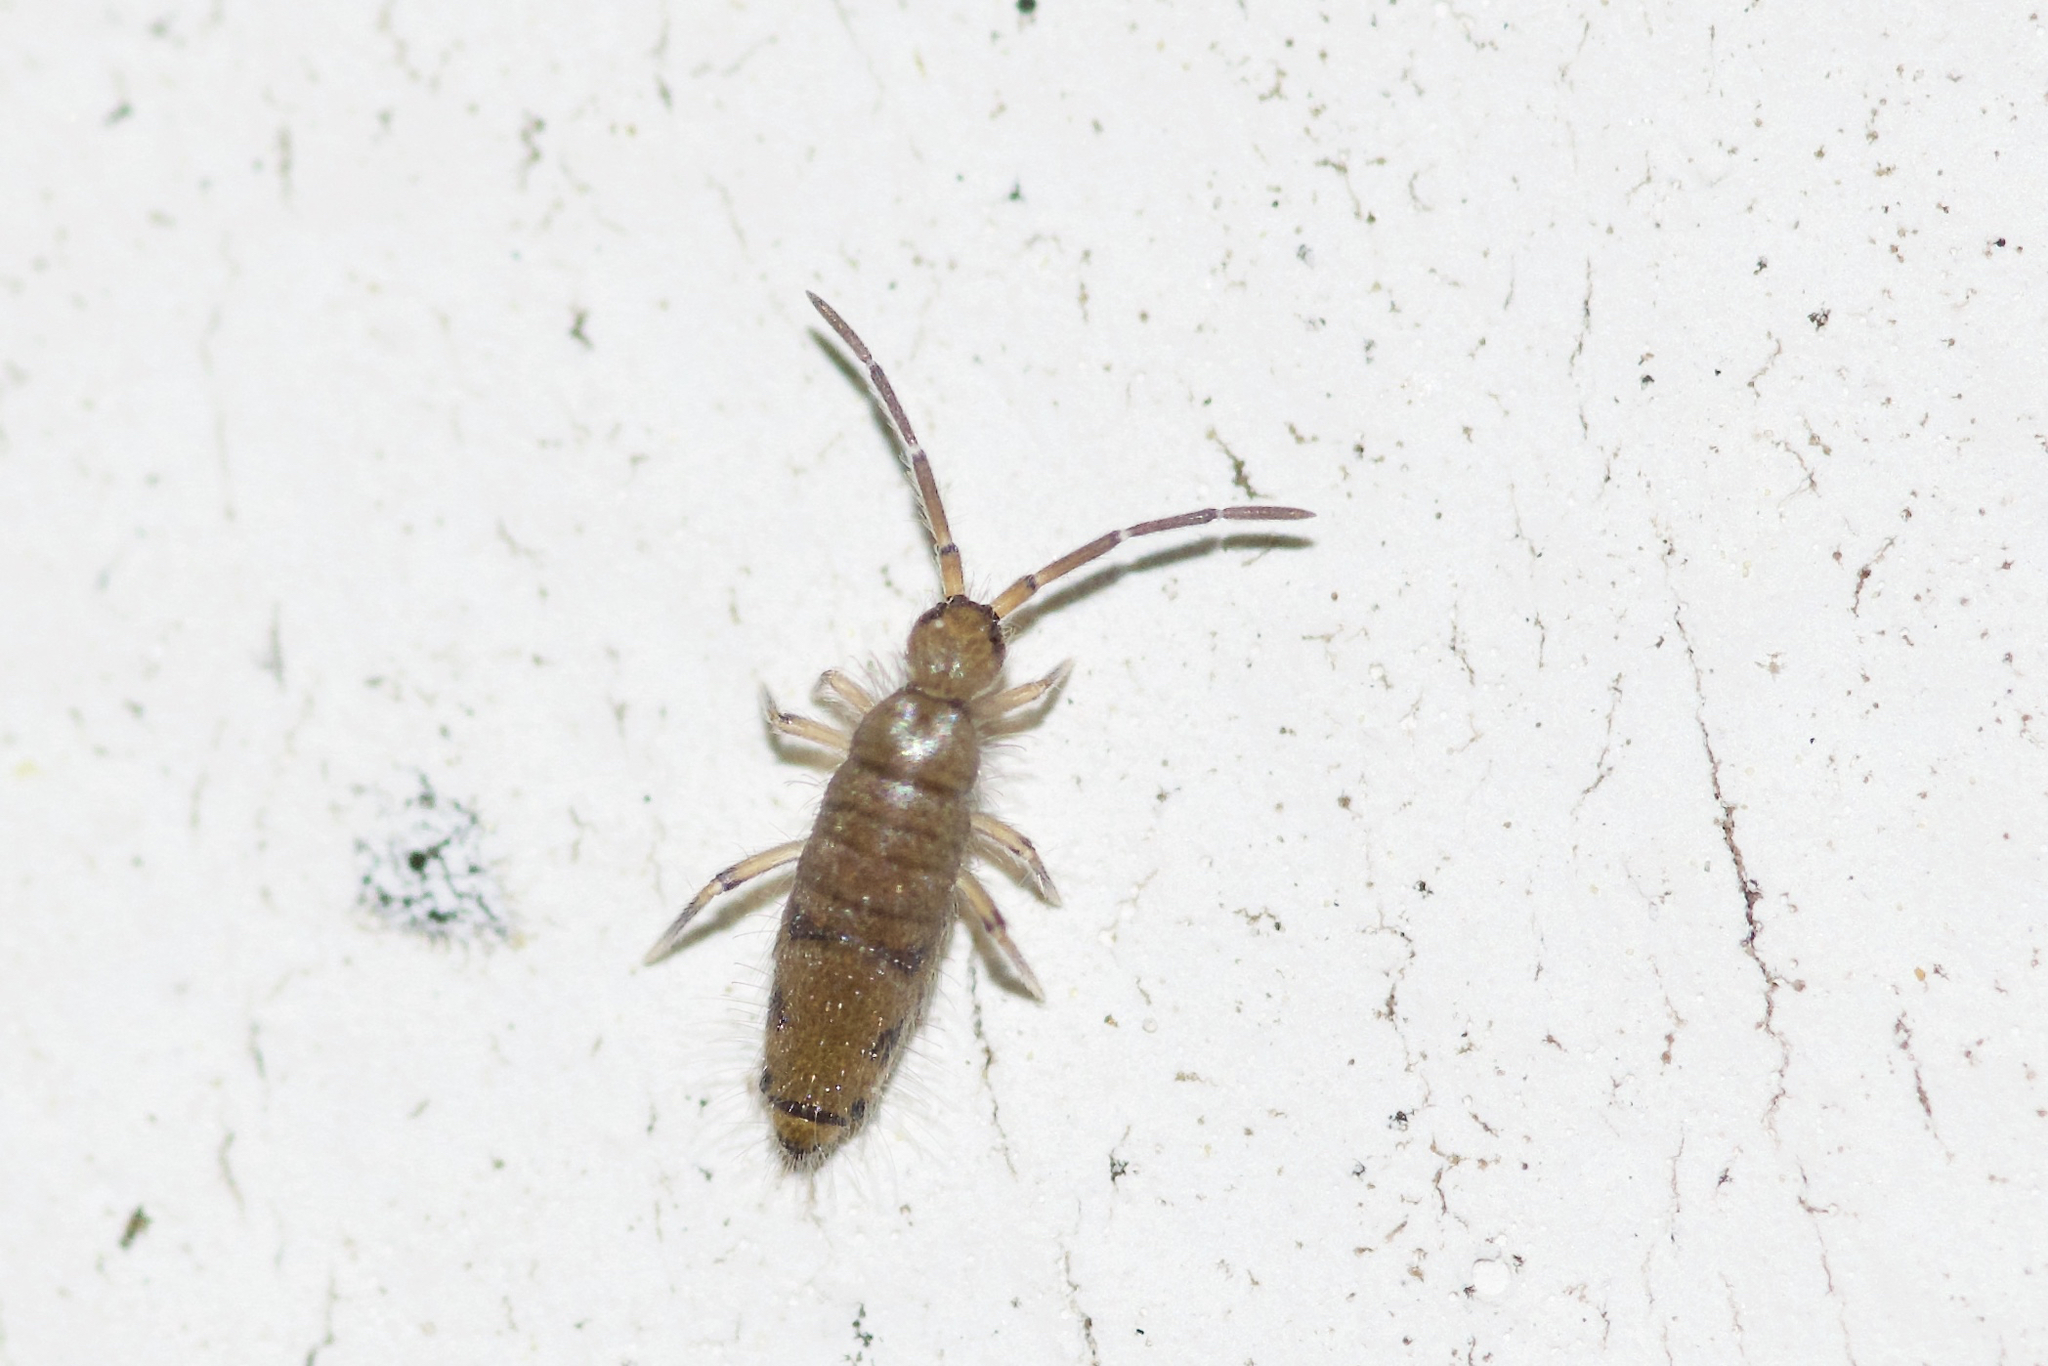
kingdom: Animalia
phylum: Arthropoda
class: Collembola
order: Entomobryomorpha
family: Entomobryidae
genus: Willowsia
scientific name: Willowsia nigromaculata
